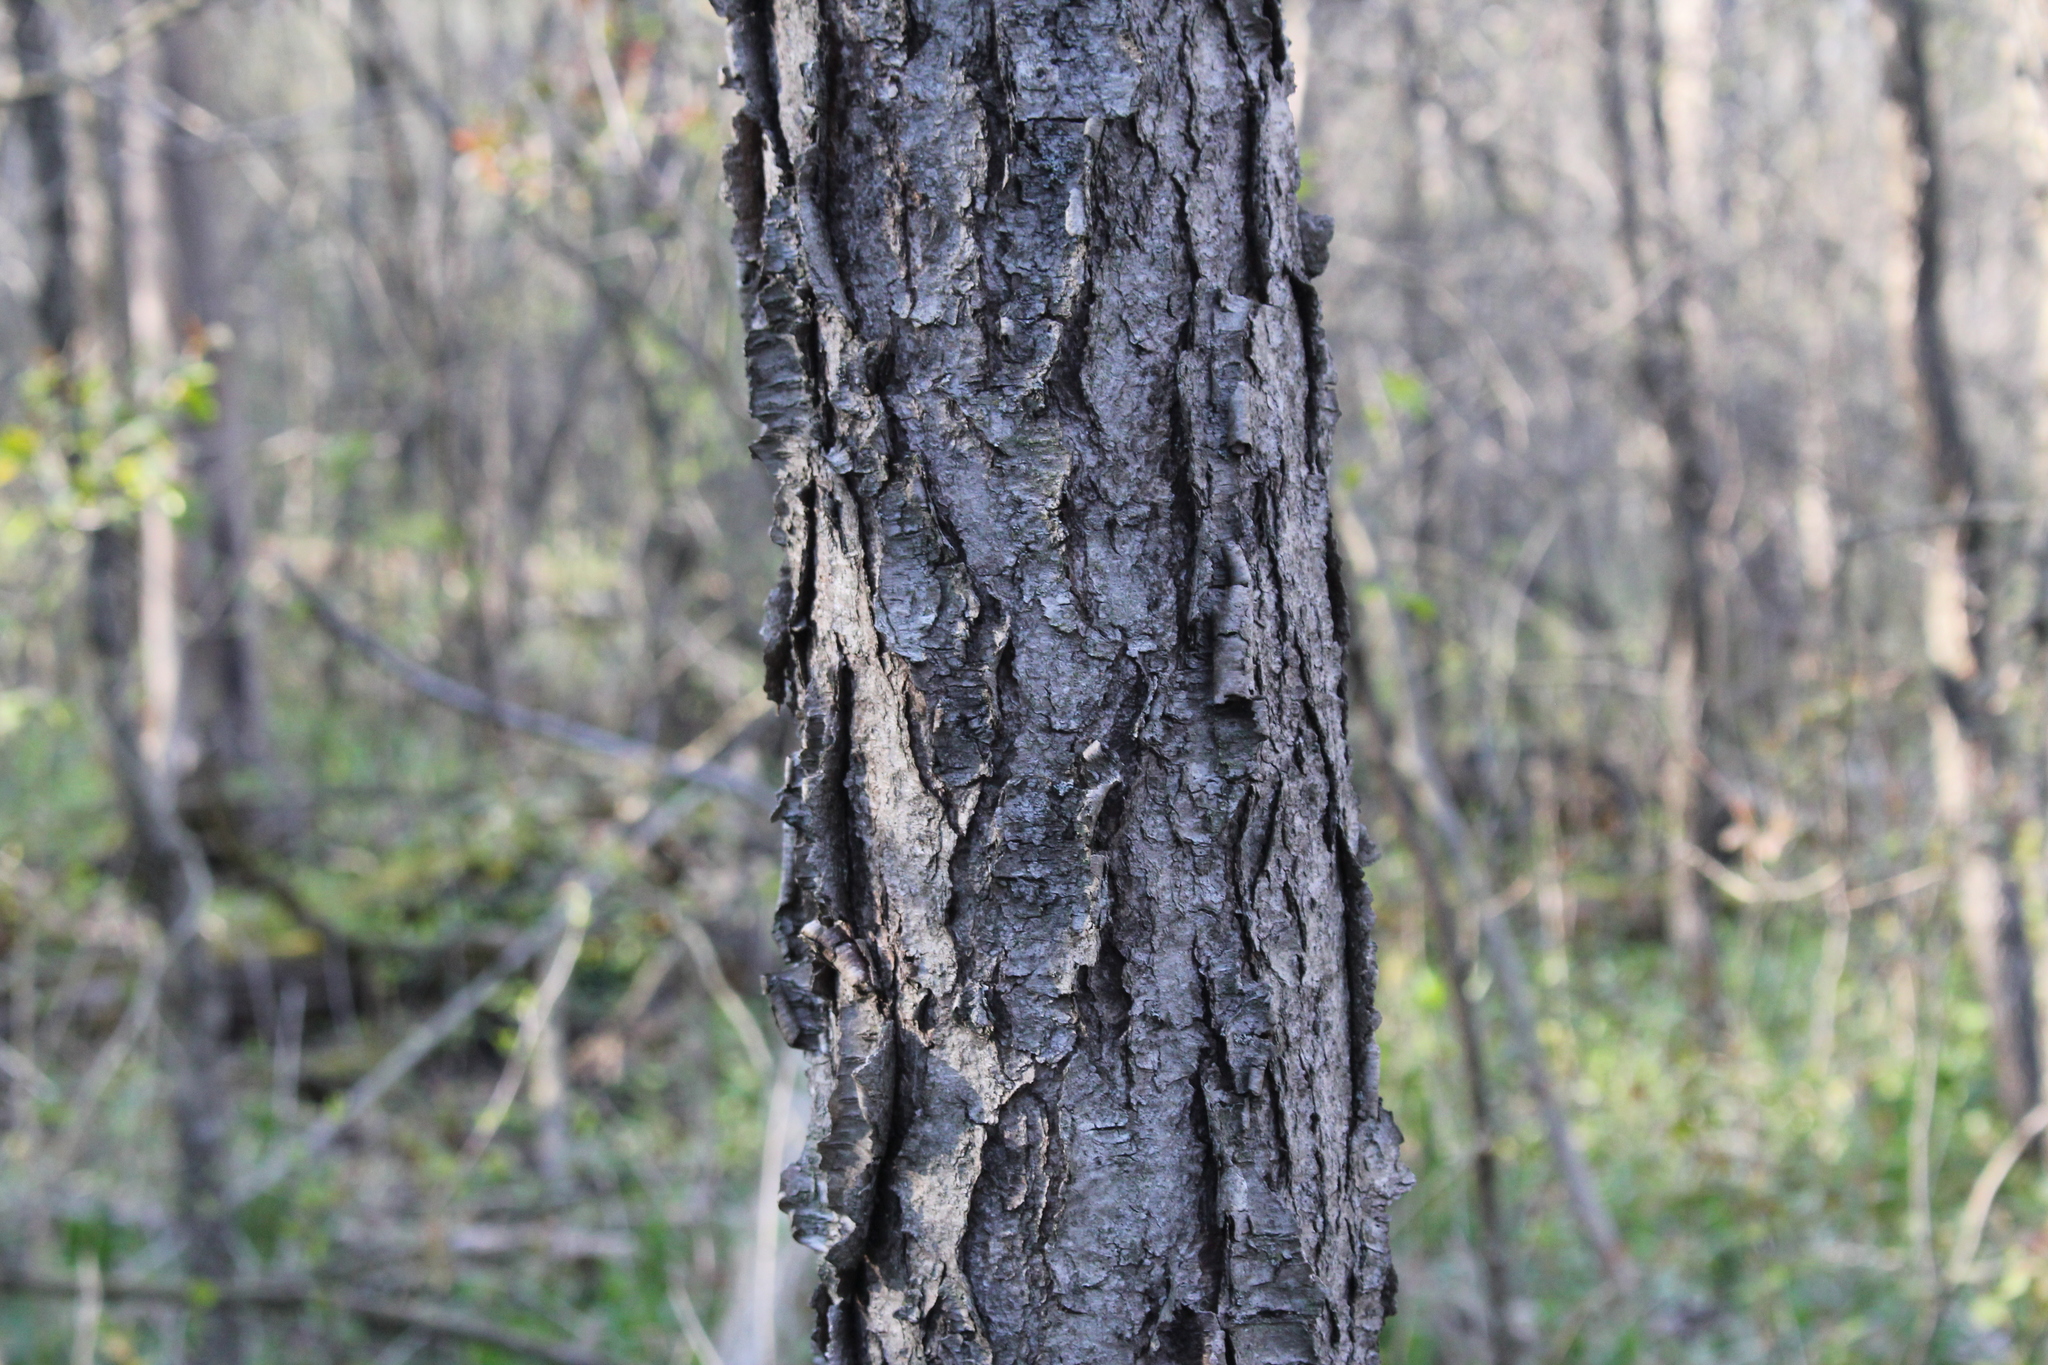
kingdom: Plantae
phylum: Tracheophyta
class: Magnoliopsida
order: Rosales
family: Rosaceae
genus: Prunus
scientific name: Prunus serotina
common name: Black cherry
